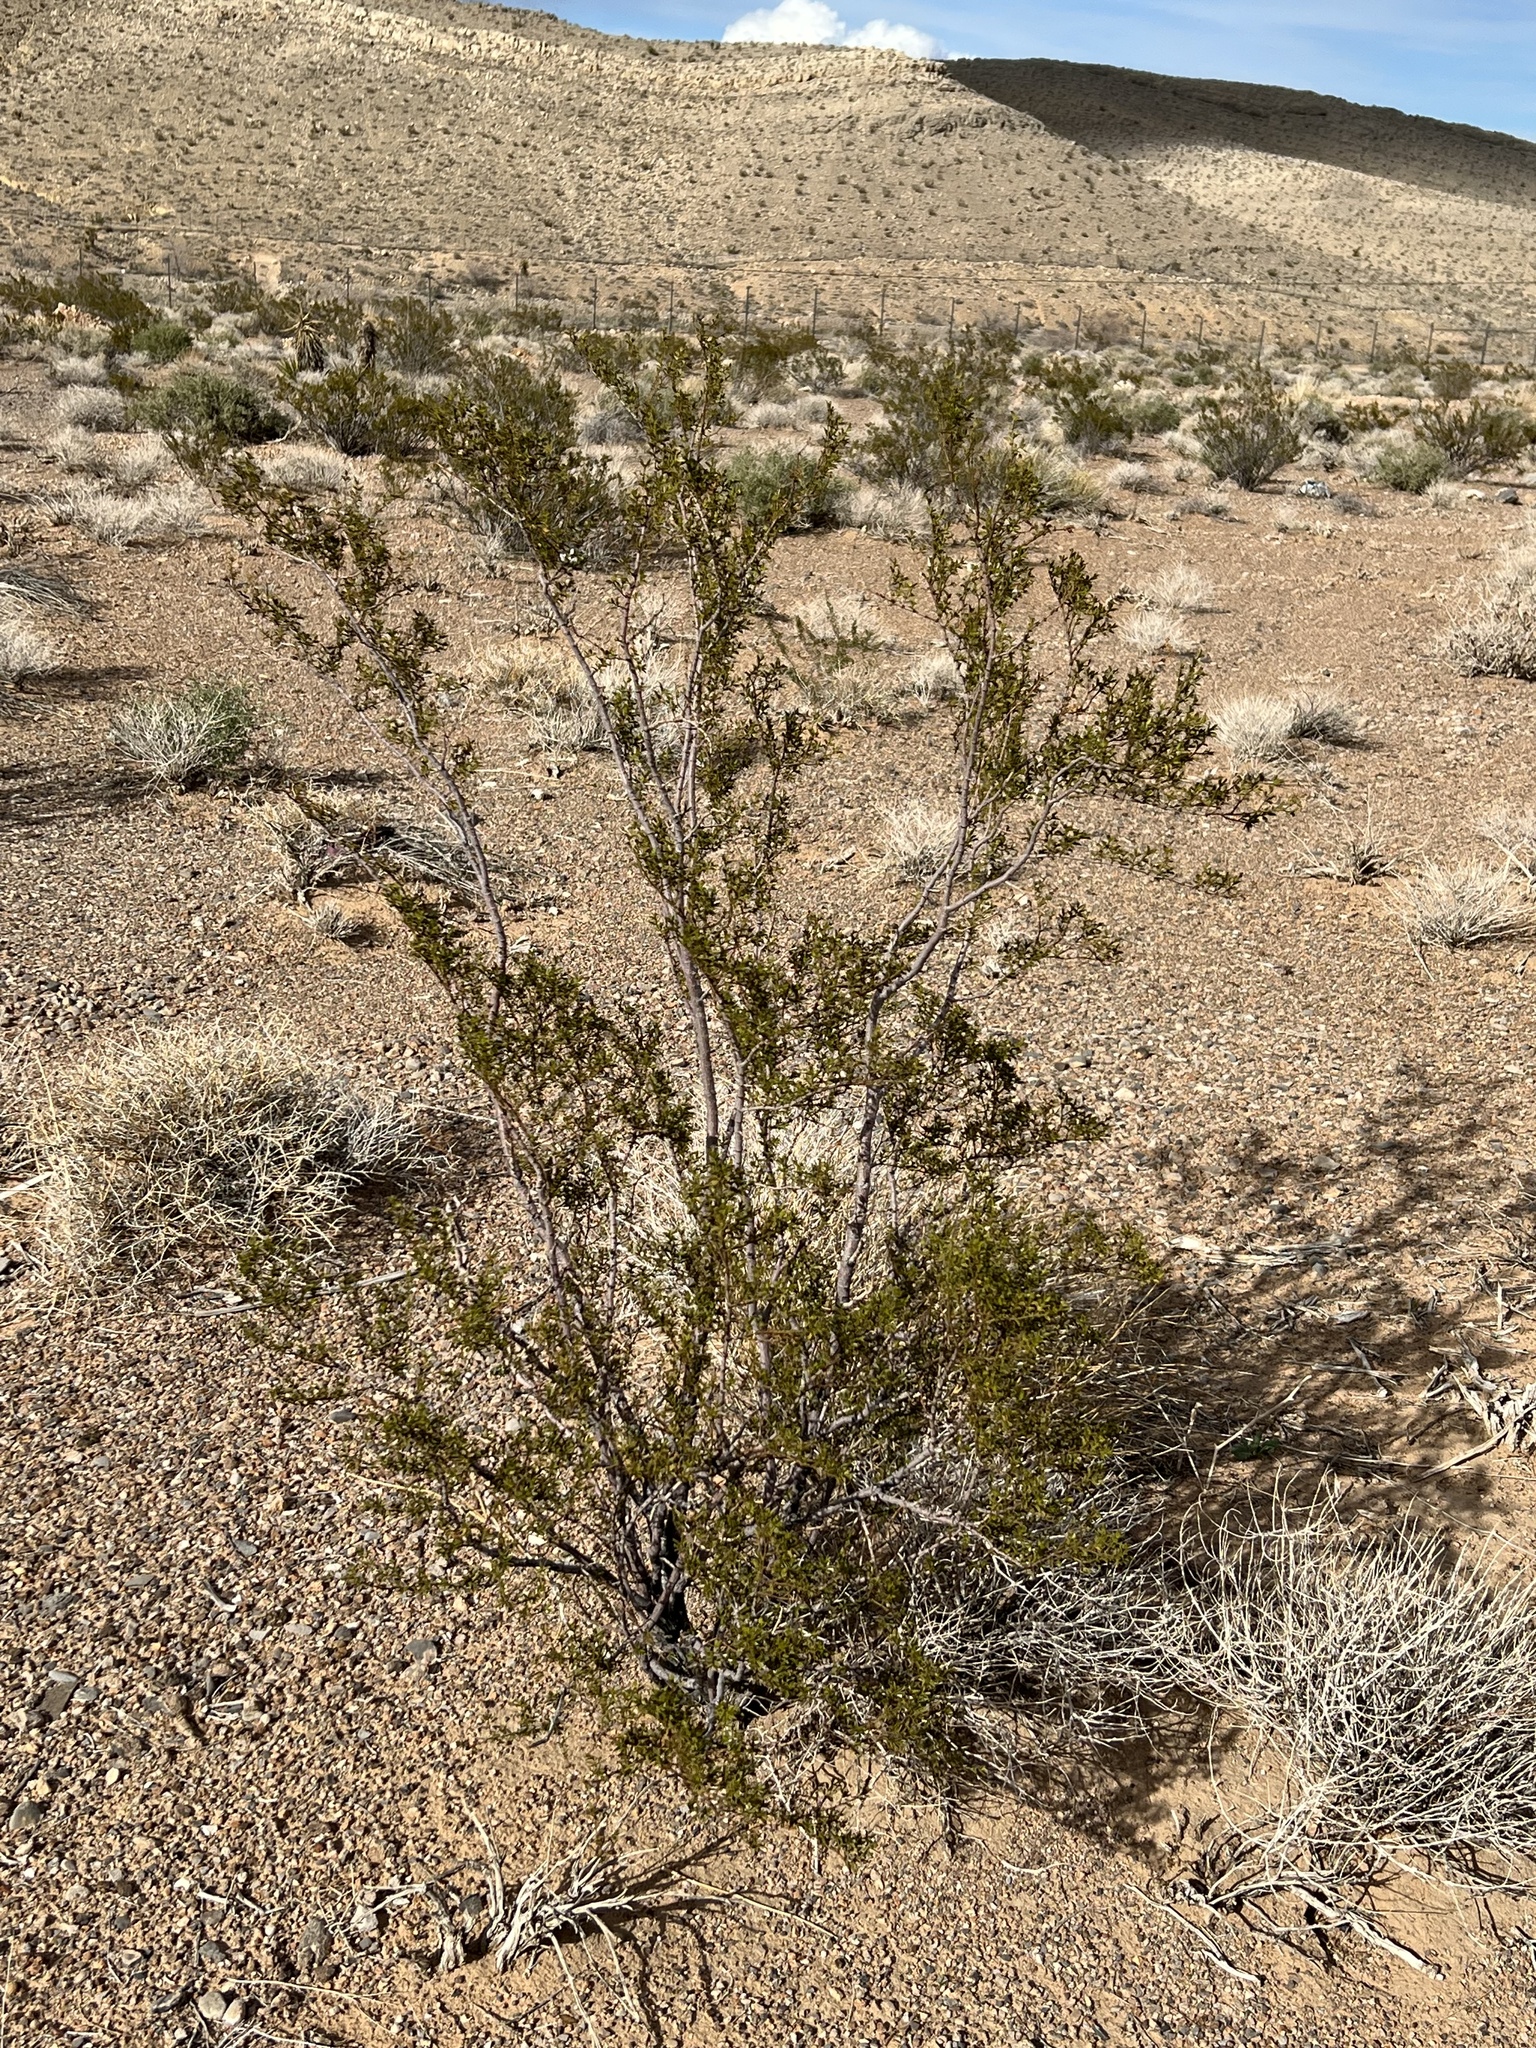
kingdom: Plantae
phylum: Tracheophyta
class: Magnoliopsida
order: Zygophyllales
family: Zygophyllaceae
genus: Larrea
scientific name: Larrea tridentata
